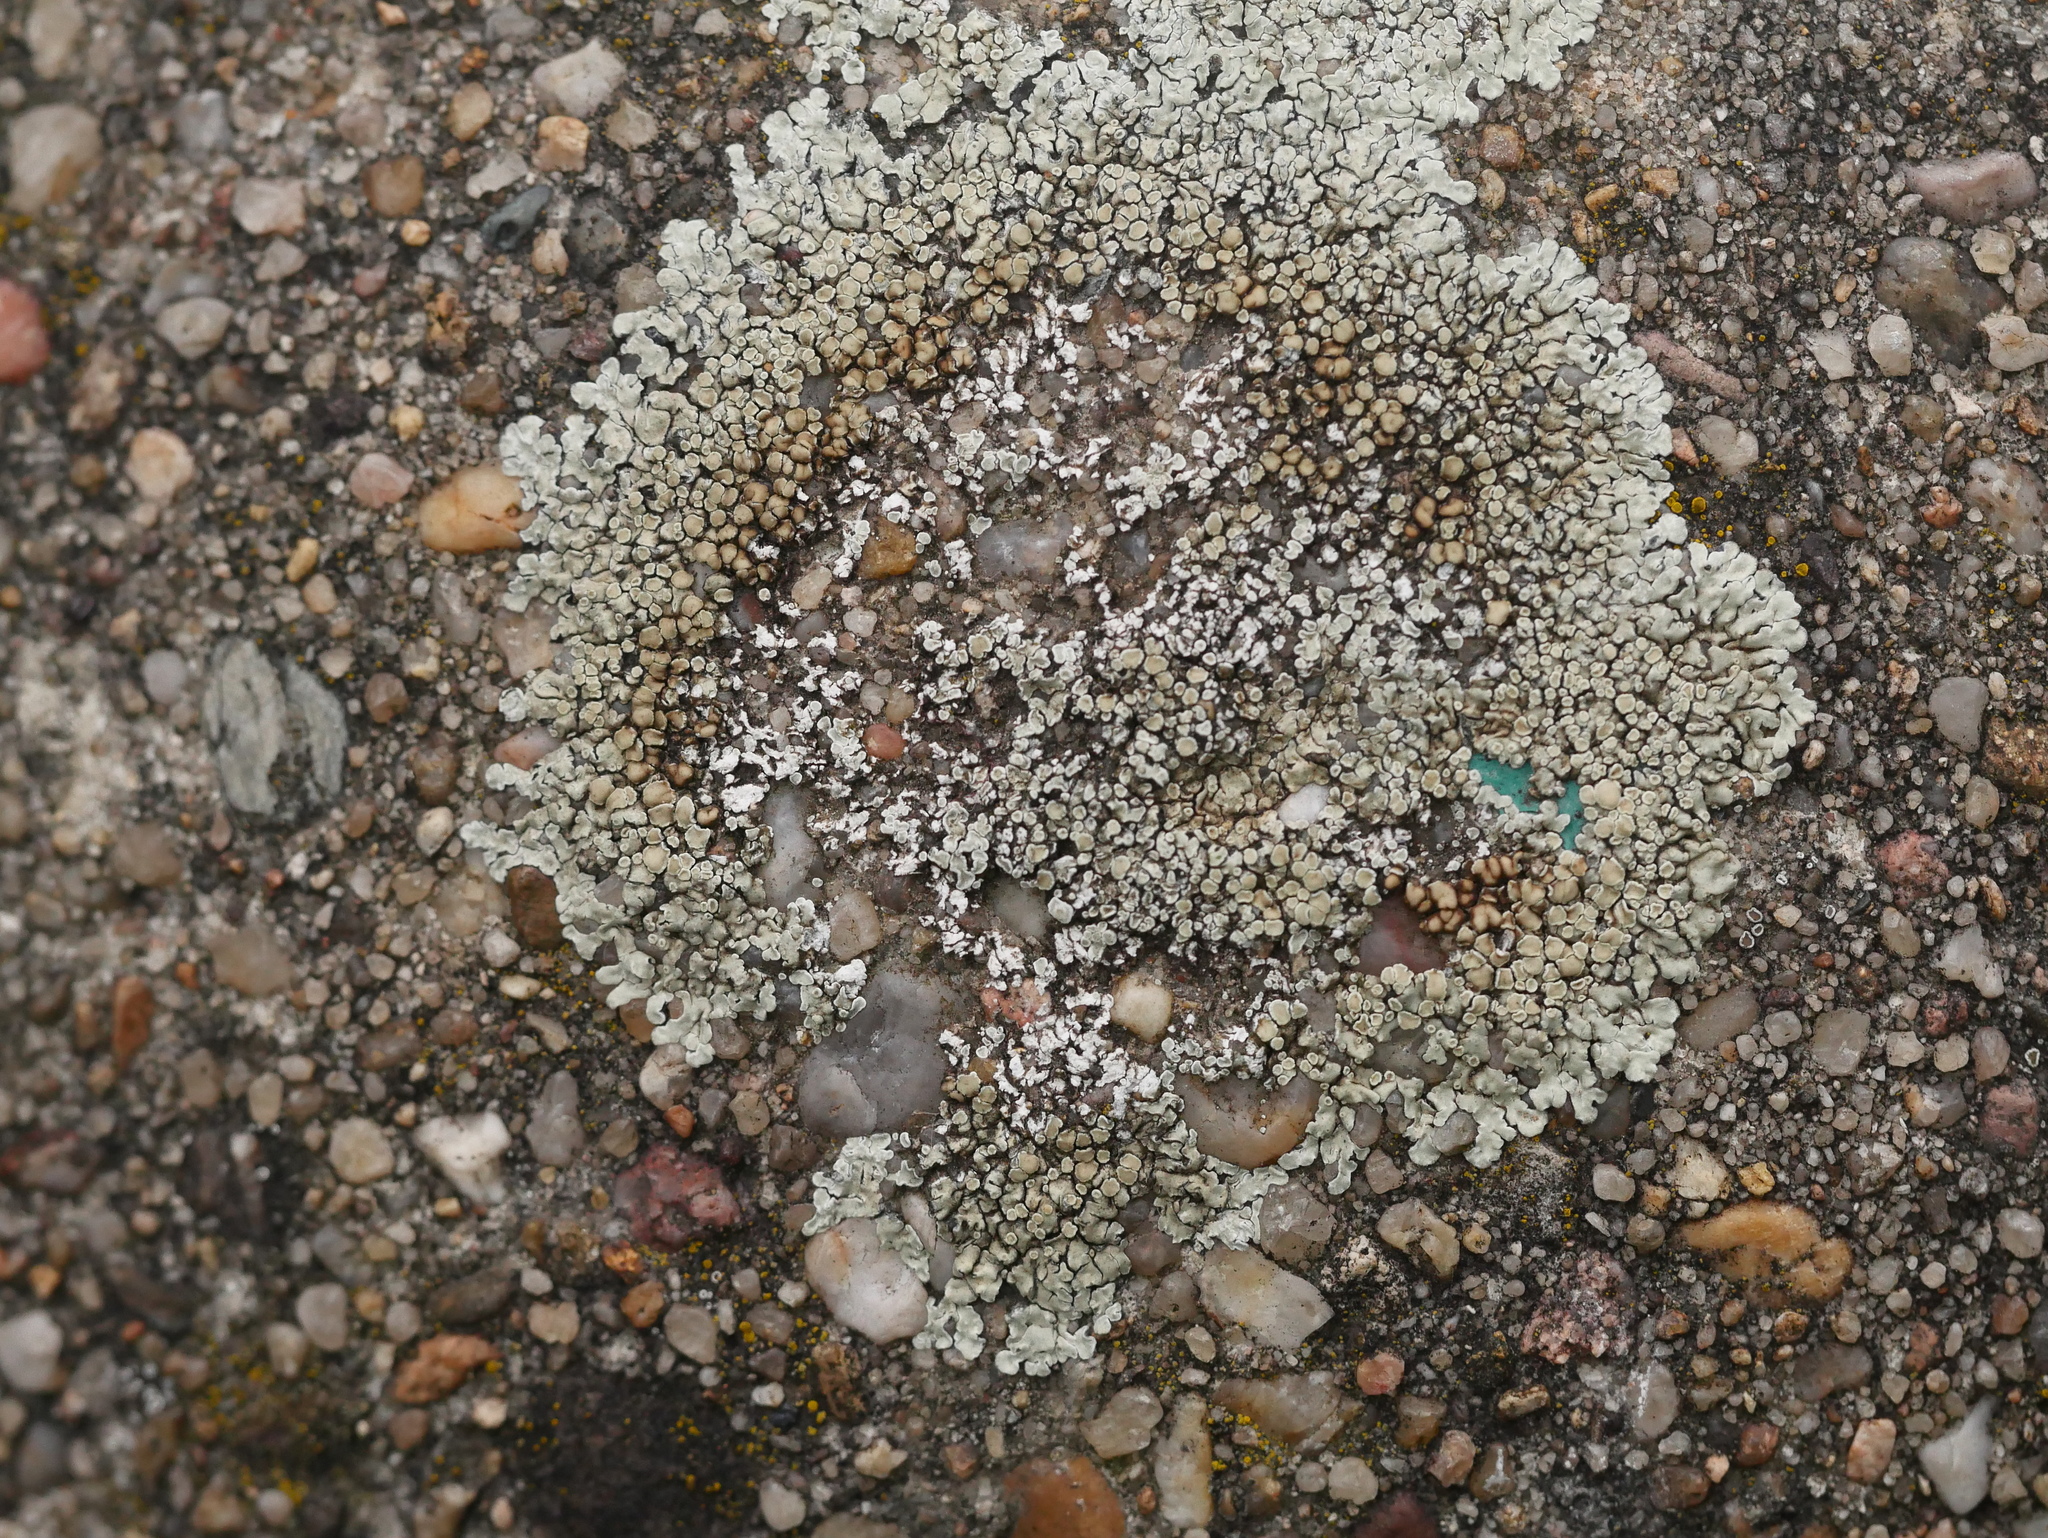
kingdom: Fungi
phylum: Ascomycota
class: Lecanoromycetes
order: Lecanorales
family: Lecanoraceae
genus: Protoparmeliopsis
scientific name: Protoparmeliopsis muralis
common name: Stonewall rim lichen
